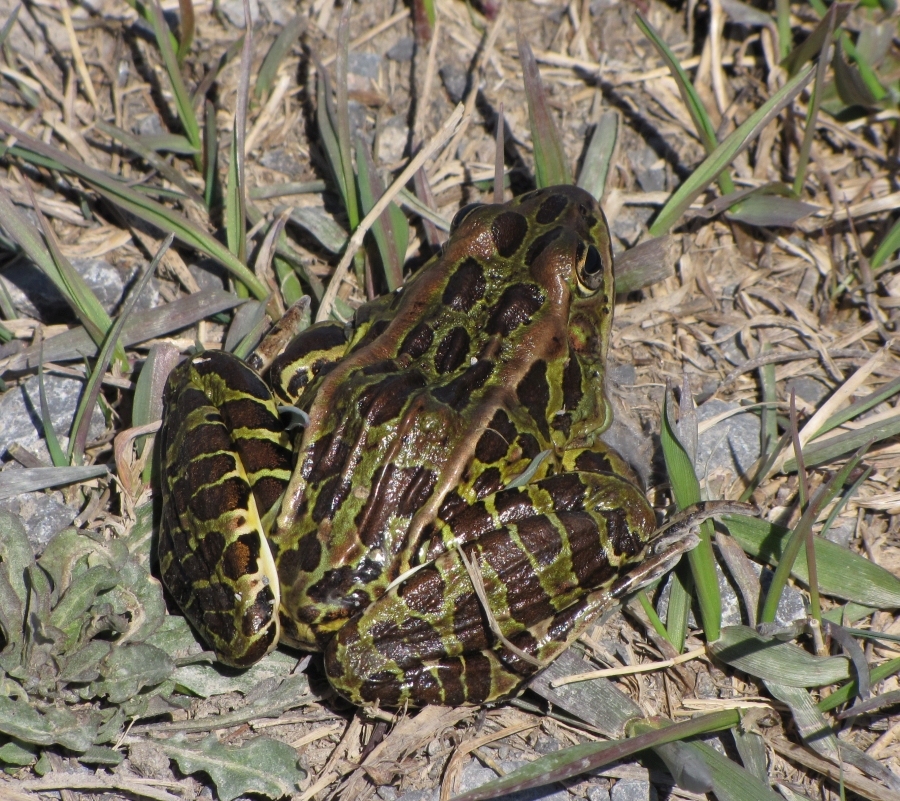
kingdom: Animalia
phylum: Chordata
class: Amphibia
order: Anura
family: Ranidae
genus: Lithobates
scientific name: Lithobates pipiens
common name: Northern leopard frog
